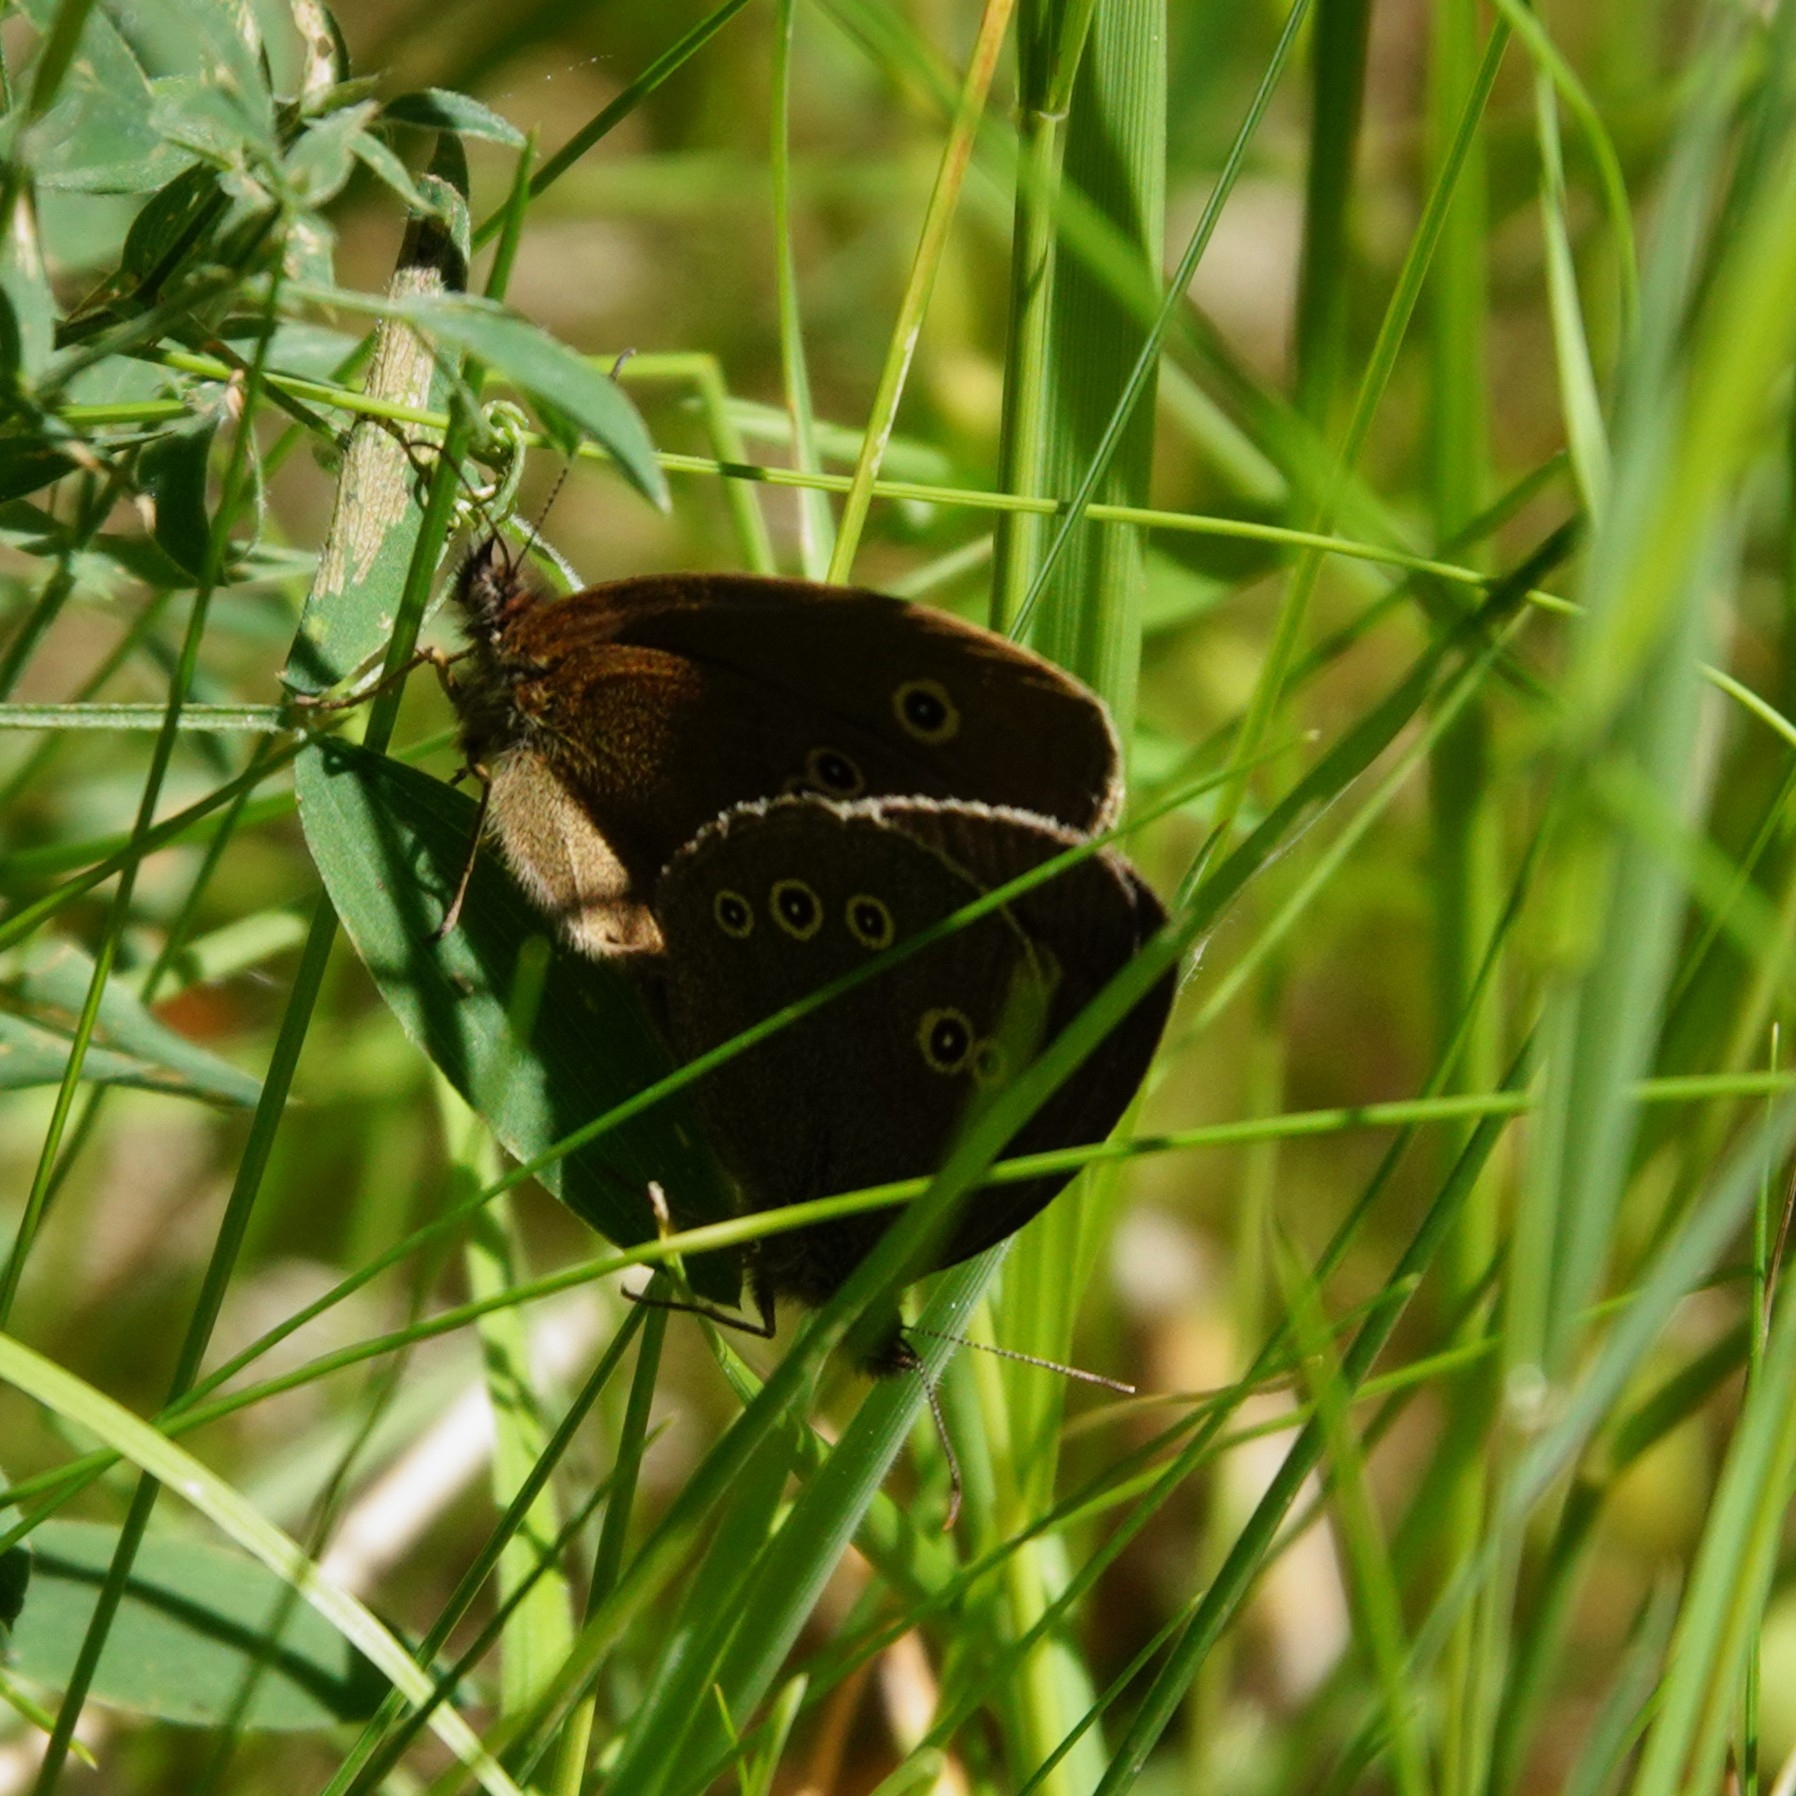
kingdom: Animalia
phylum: Arthropoda
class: Insecta
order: Lepidoptera
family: Nymphalidae
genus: Aphantopus
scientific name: Aphantopus hyperantus
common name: Ringlet
